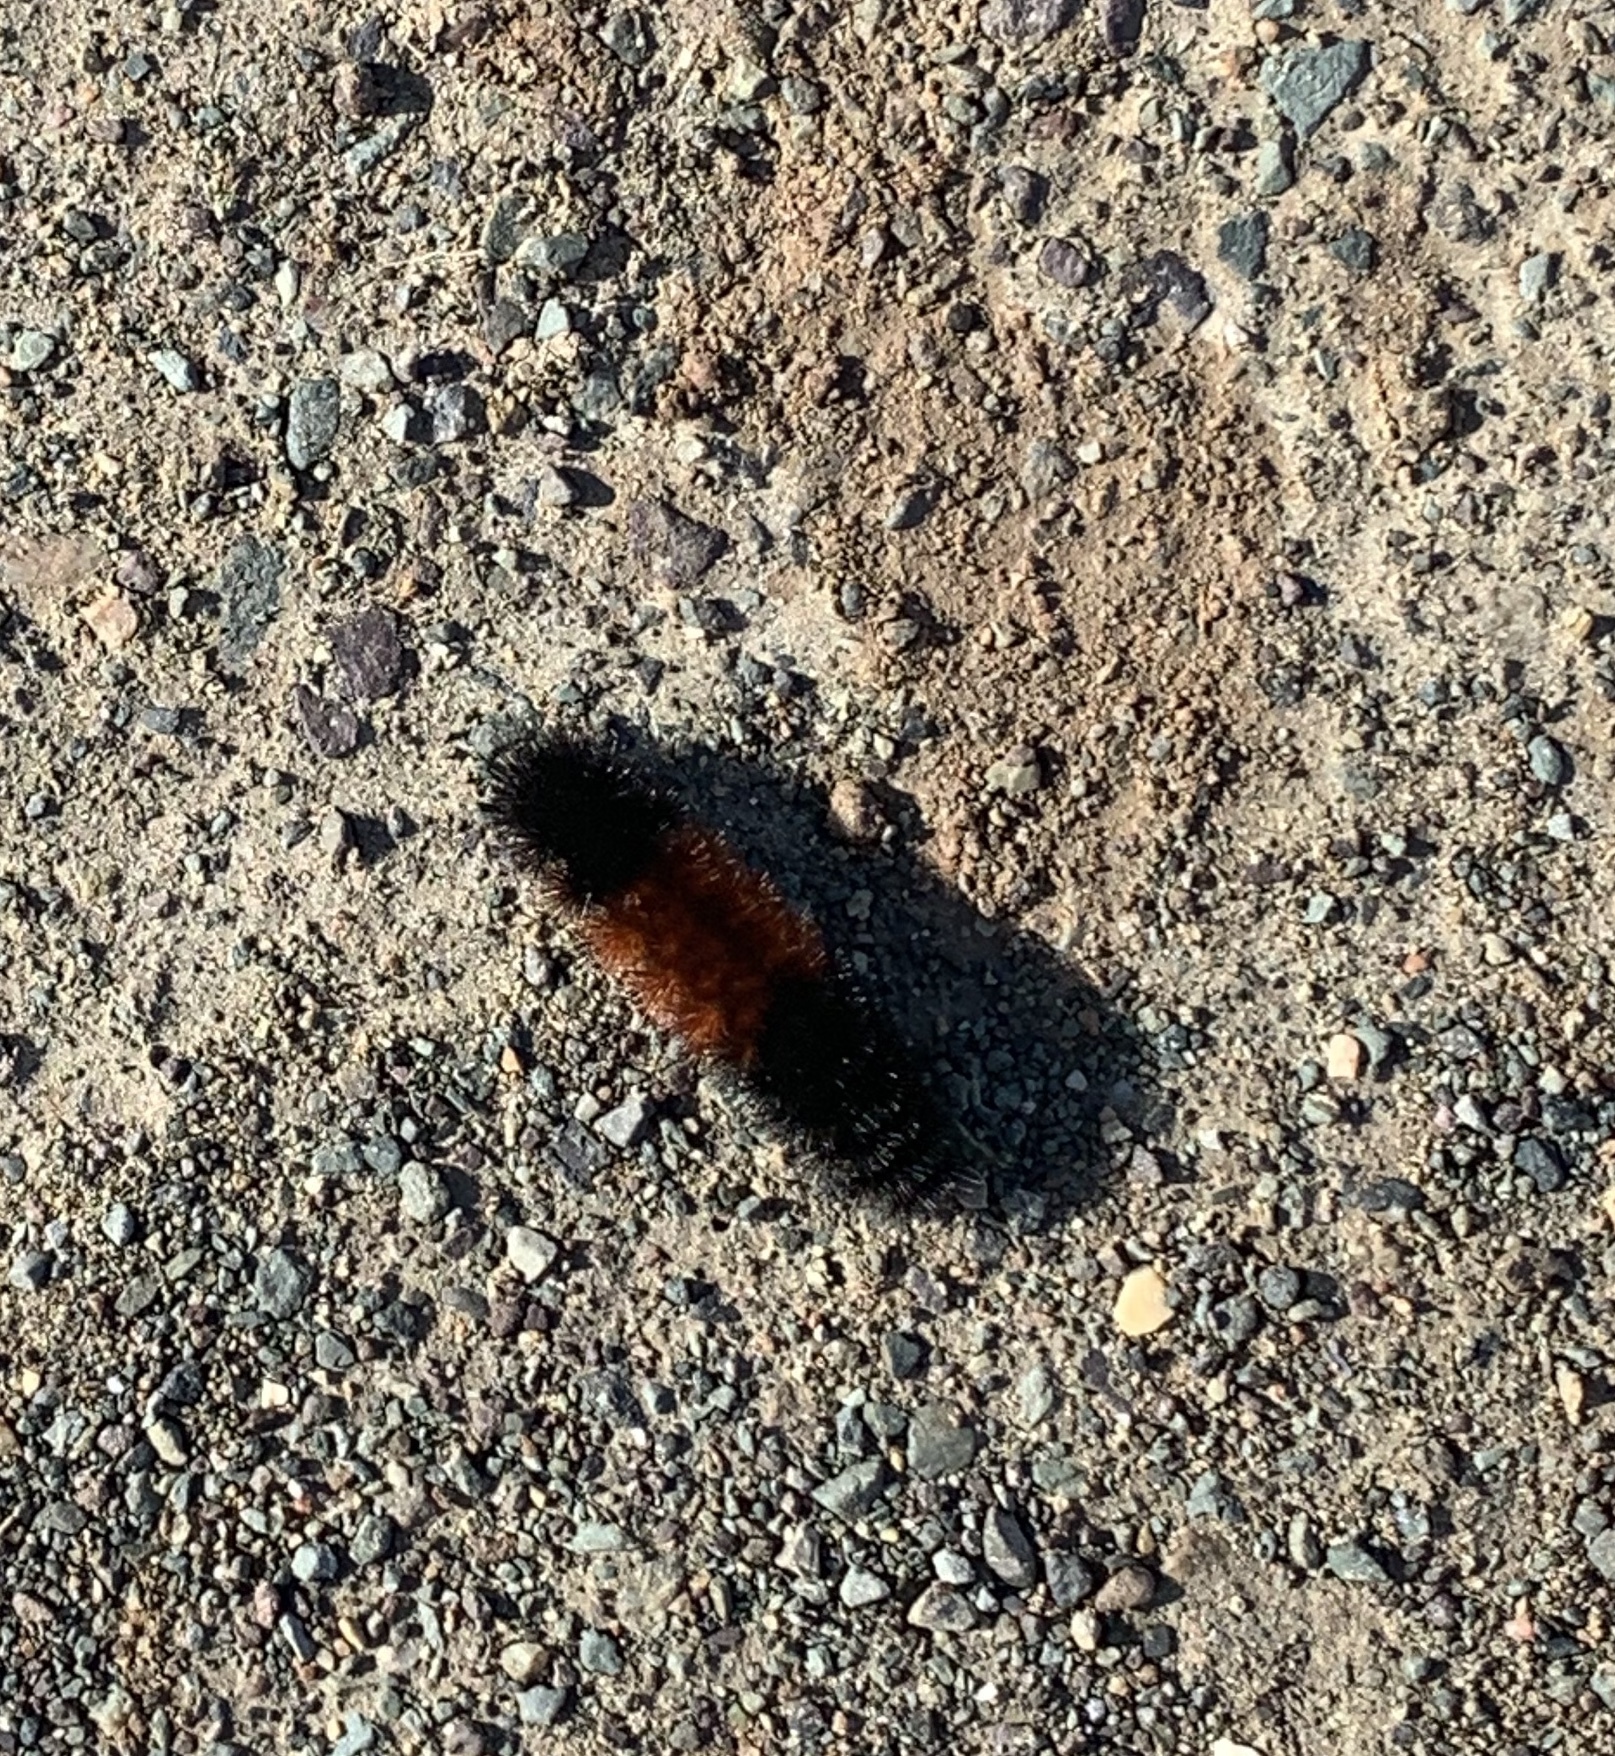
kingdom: Animalia
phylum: Arthropoda
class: Insecta
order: Lepidoptera
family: Erebidae
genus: Pyrrharctia
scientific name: Pyrrharctia isabella
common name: Isabella tiger moth
